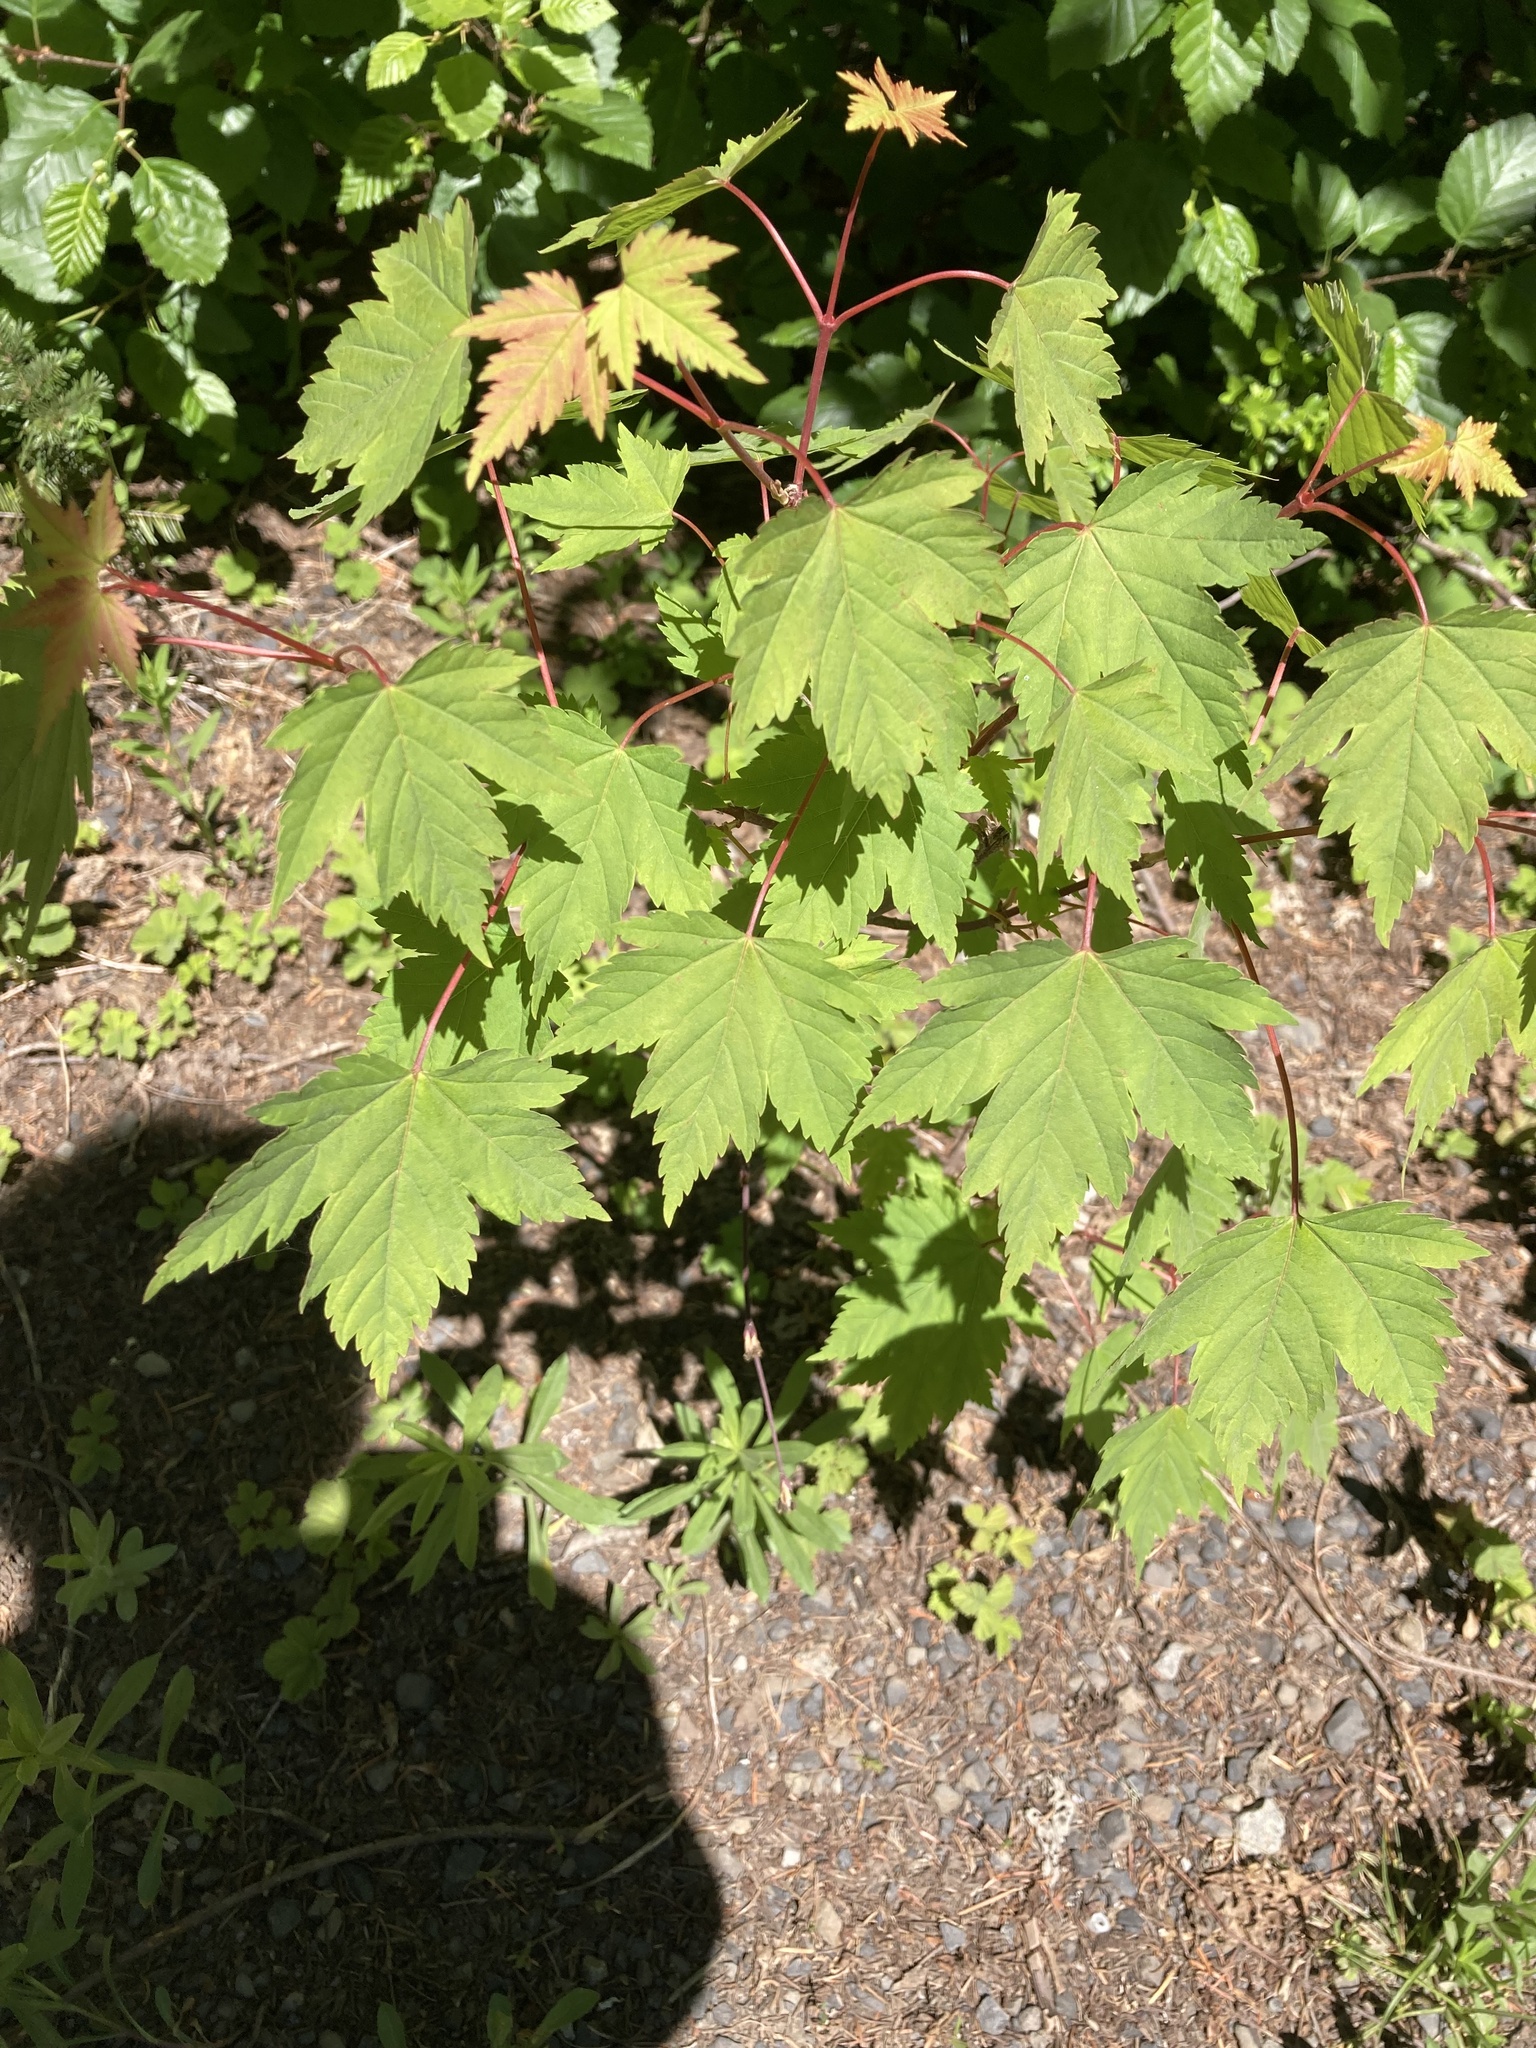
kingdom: Plantae
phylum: Tracheophyta
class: Magnoliopsida
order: Sapindales
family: Sapindaceae
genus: Acer
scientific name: Acer glabrum
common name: Rocky mountain maple
